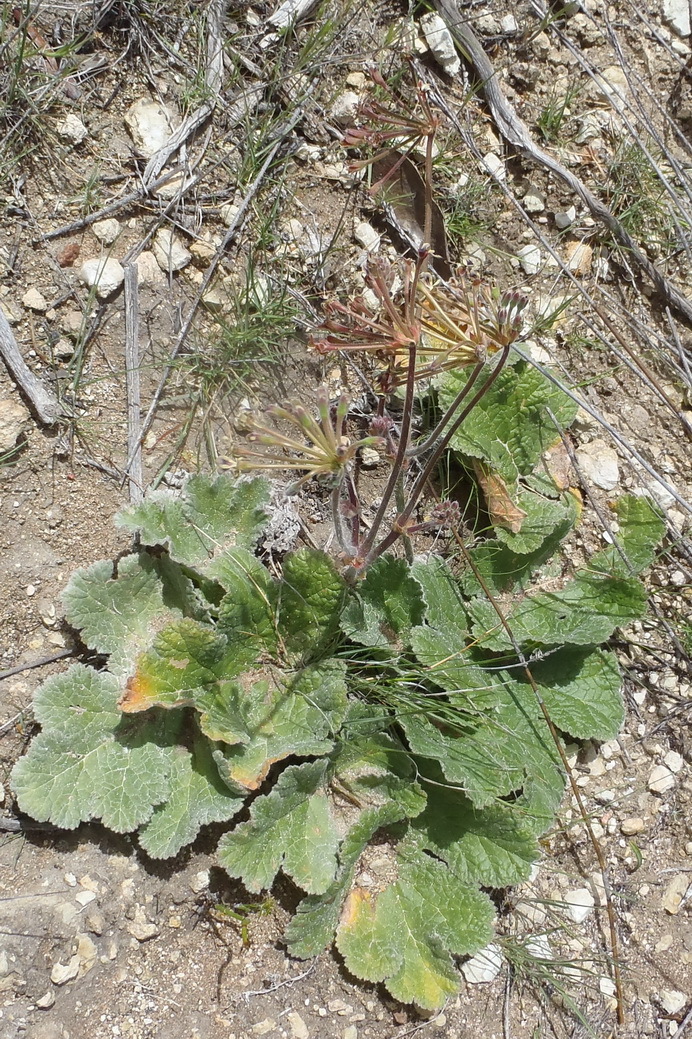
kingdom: Plantae
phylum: Tracheophyta
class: Magnoliopsida
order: Geraniales
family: Geraniaceae
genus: Pelargonium
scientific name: Pelargonium lobatum
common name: Vine-leaf pelargonium
